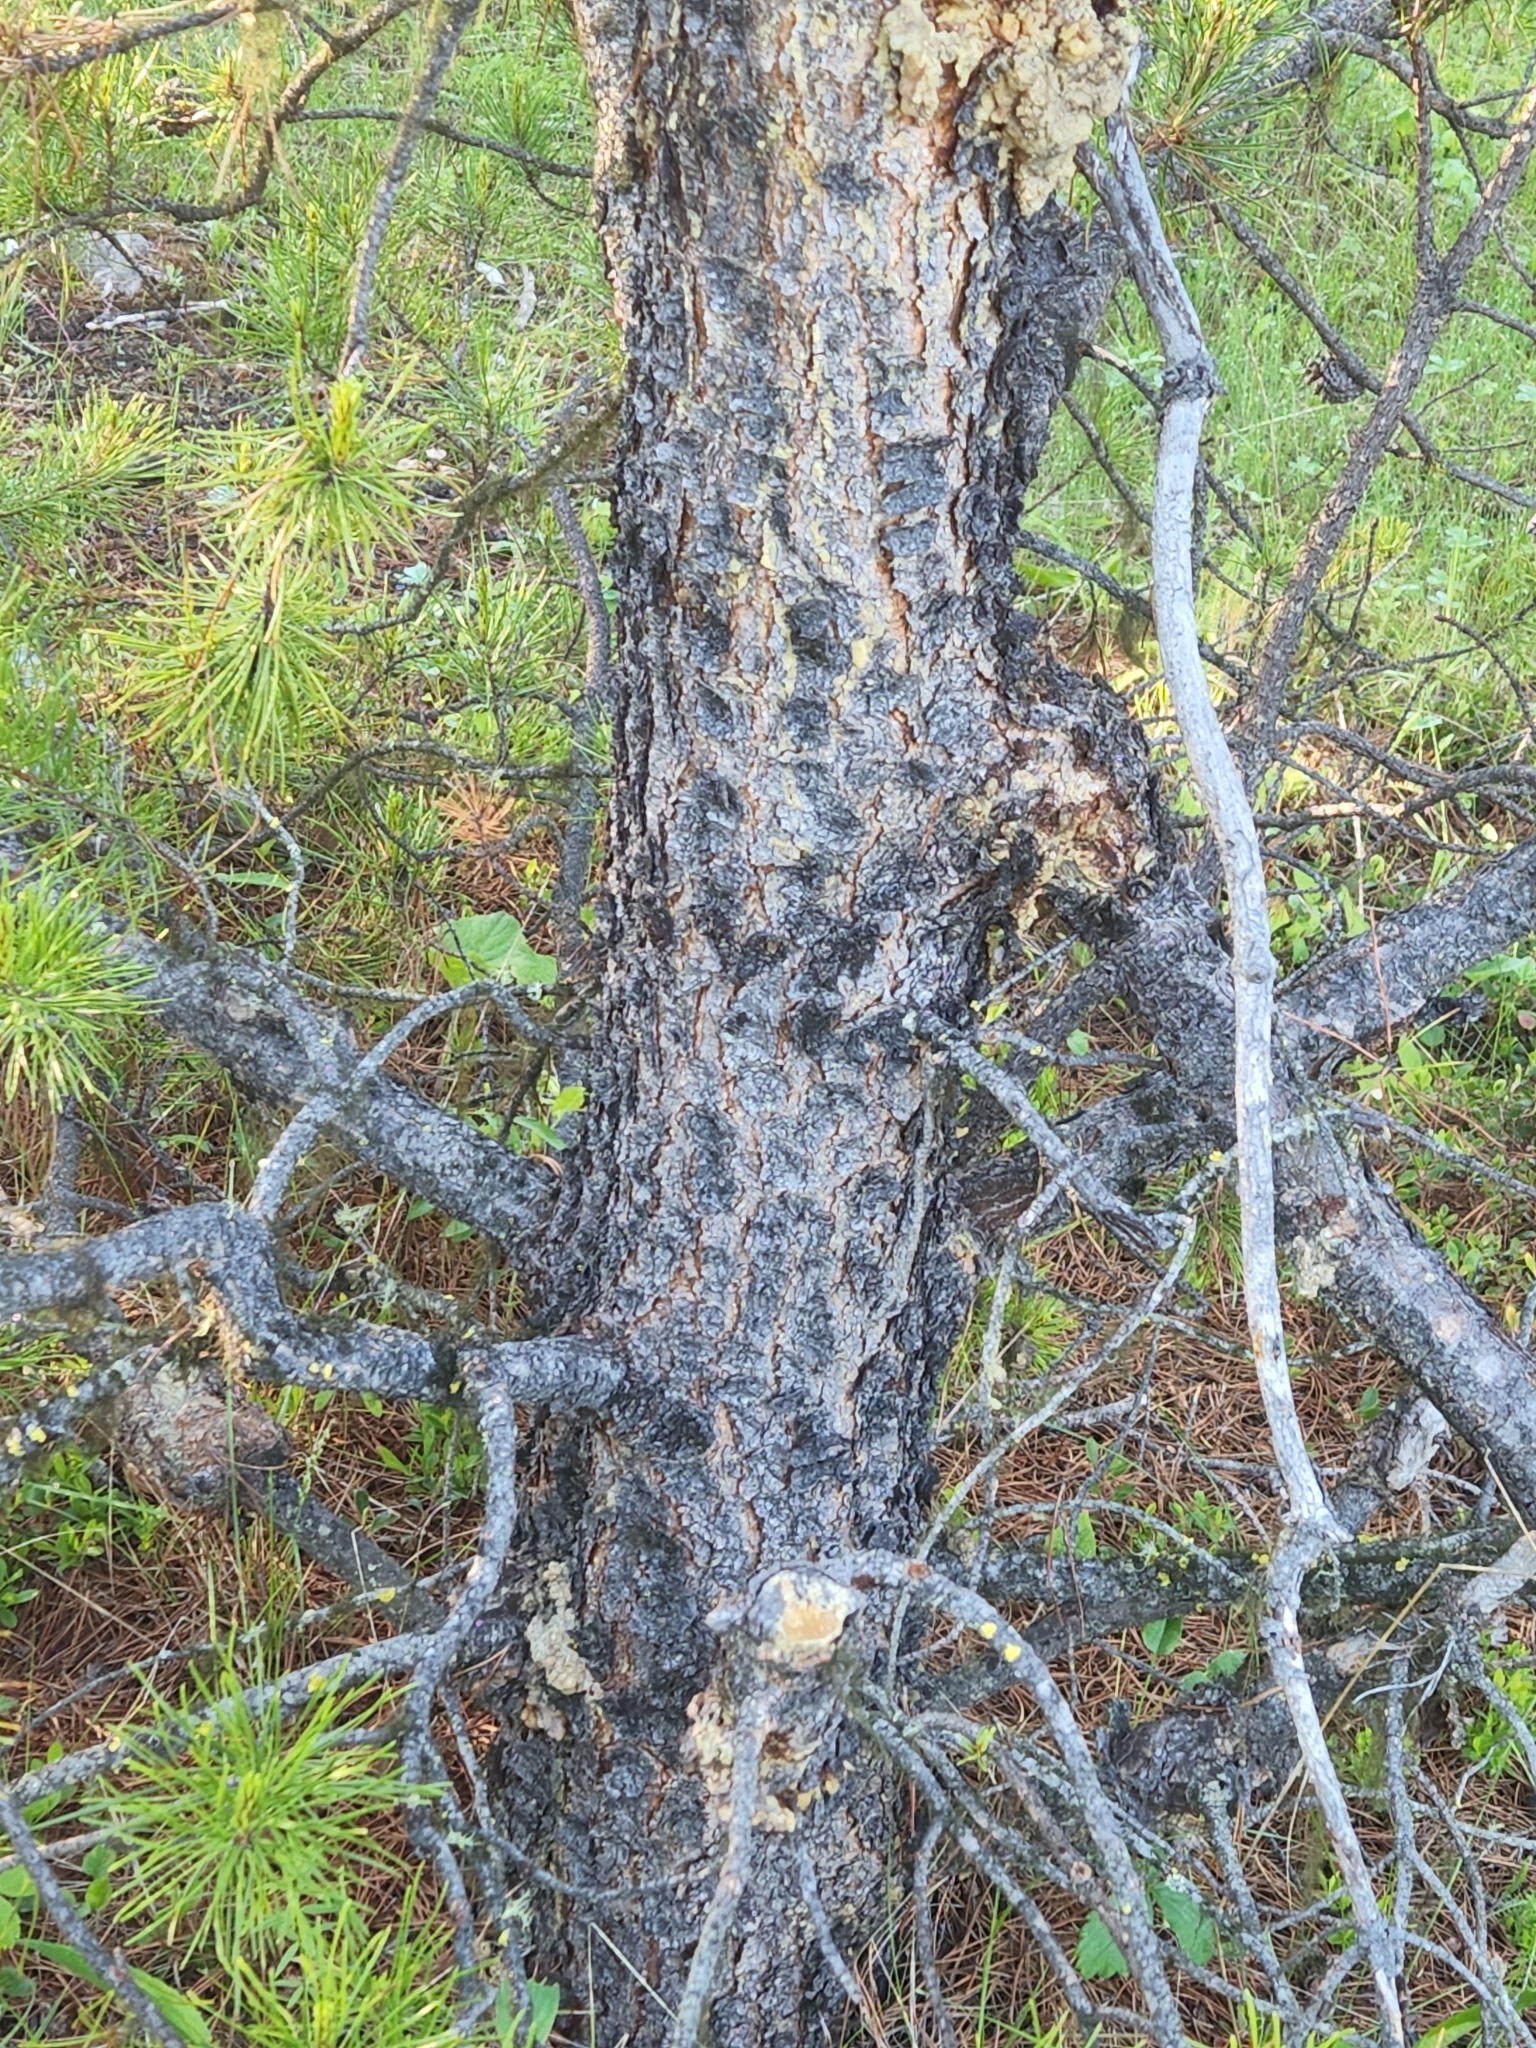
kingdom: Plantae
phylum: Tracheophyta
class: Pinopsida
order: Pinales
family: Pinaceae
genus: Pinus
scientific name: Pinus contorta
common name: Lodgepole pine
